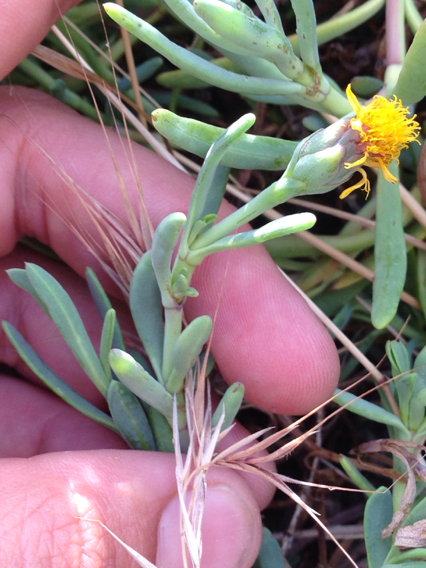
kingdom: Plantae
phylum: Tracheophyta
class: Magnoliopsida
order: Asterales
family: Asteraceae
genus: Jaumea
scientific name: Jaumea carnosa
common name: Fleshy jaumea
